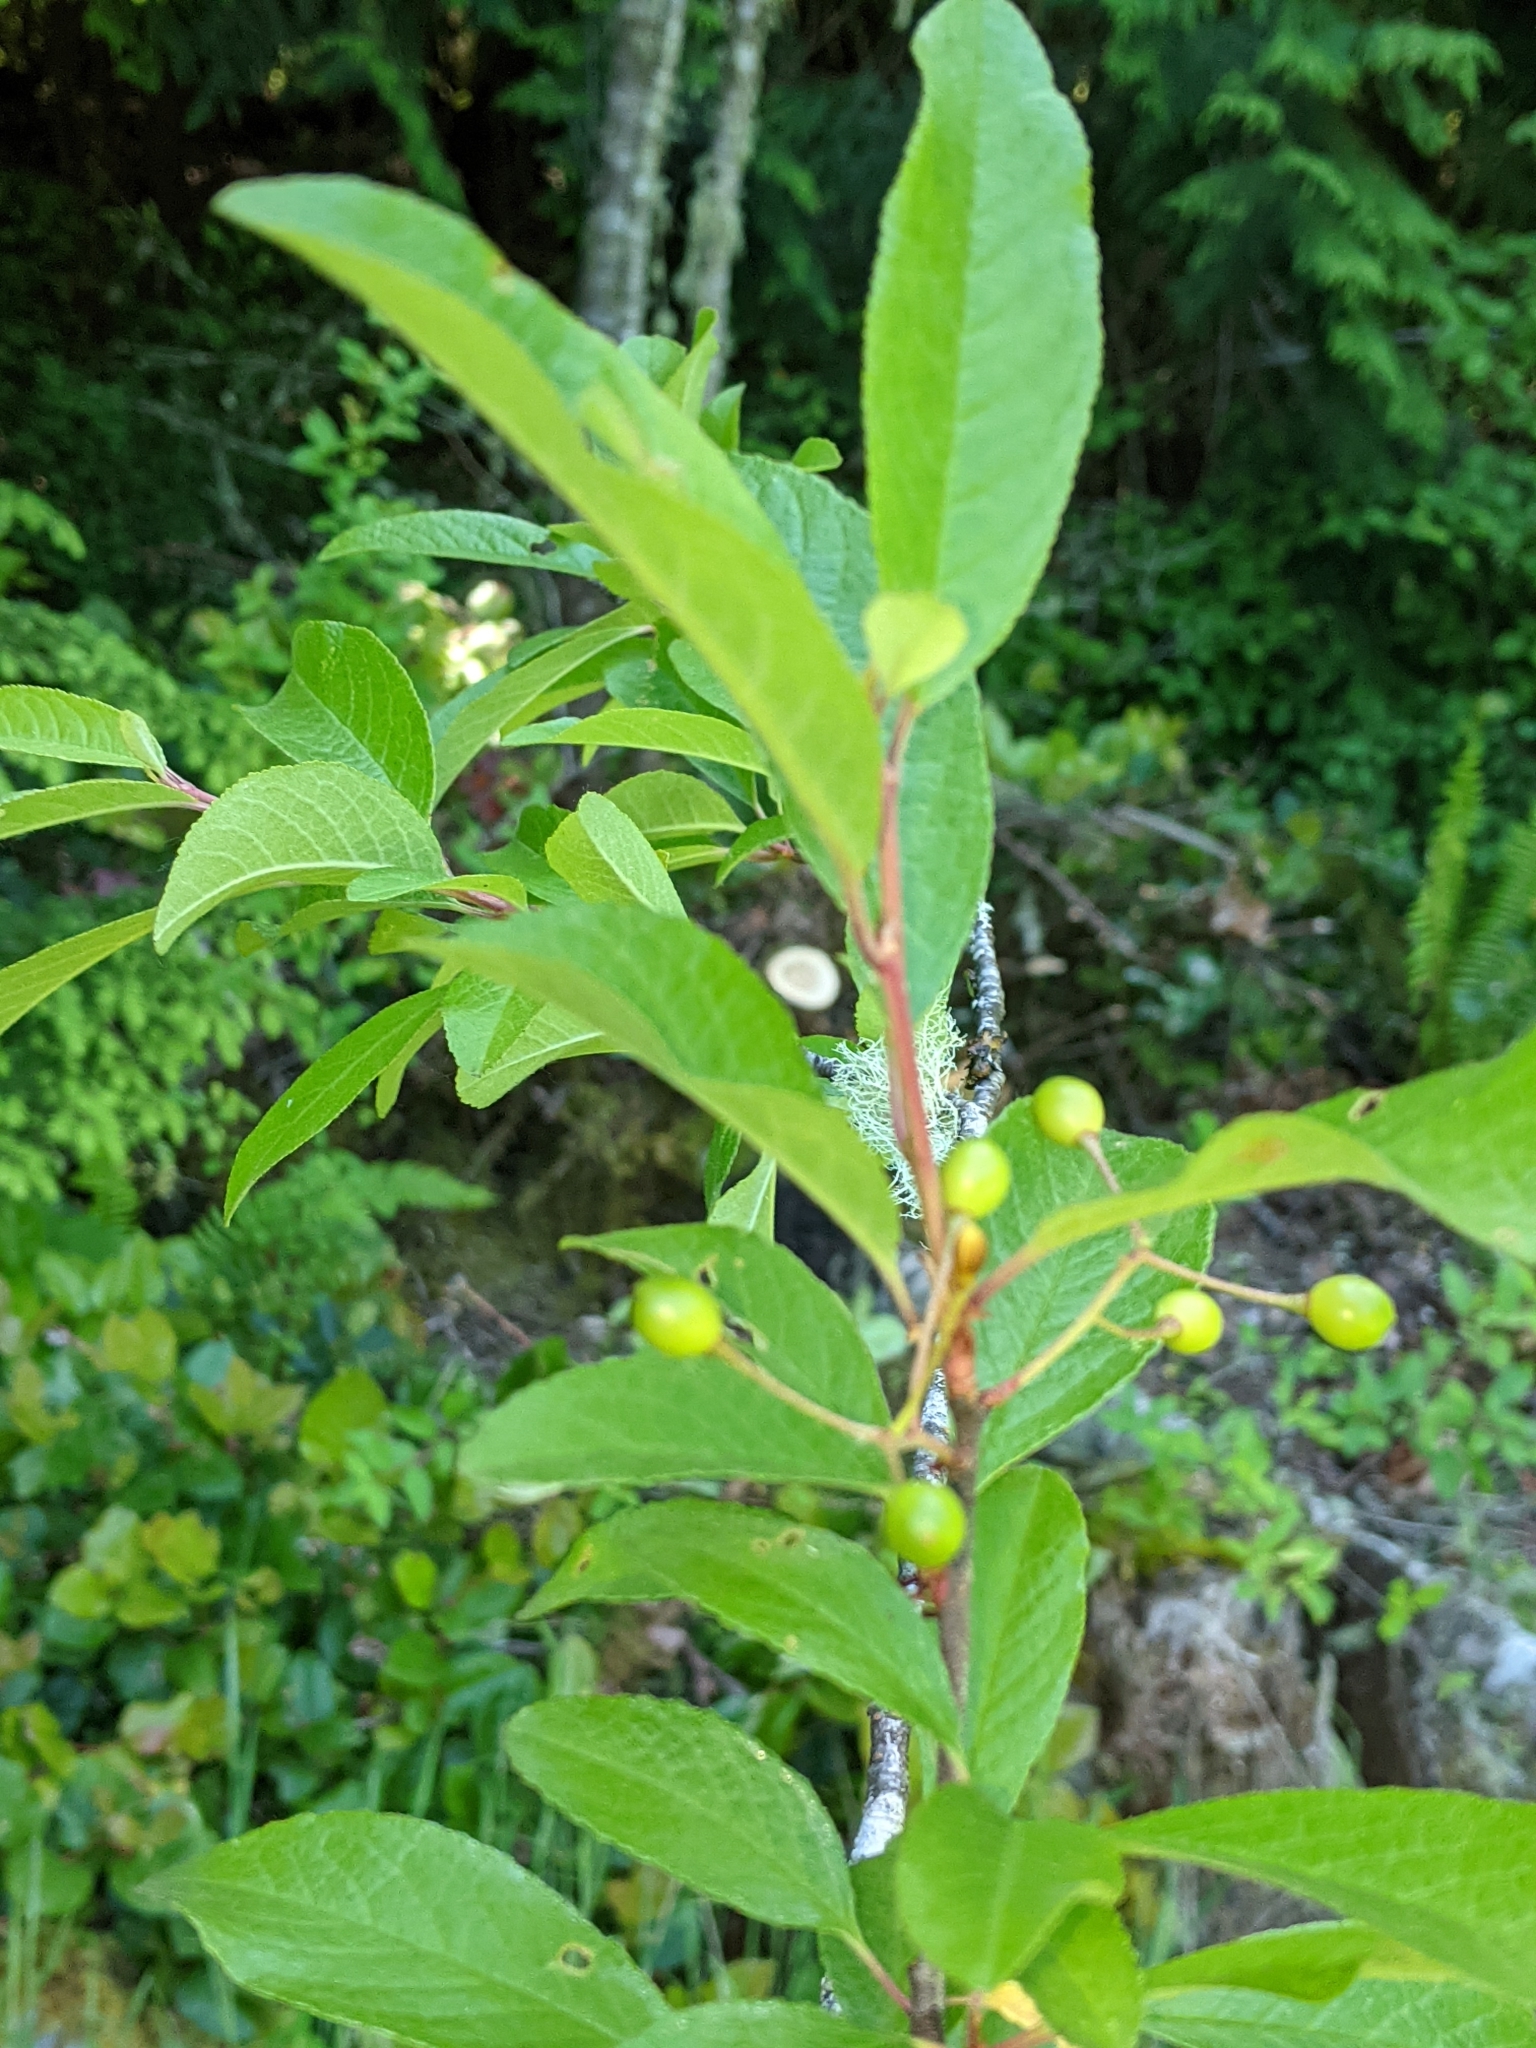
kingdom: Plantae
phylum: Tracheophyta
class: Magnoliopsida
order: Rosales
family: Rosaceae
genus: Prunus
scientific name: Prunus emarginata
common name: Bitter cherry
